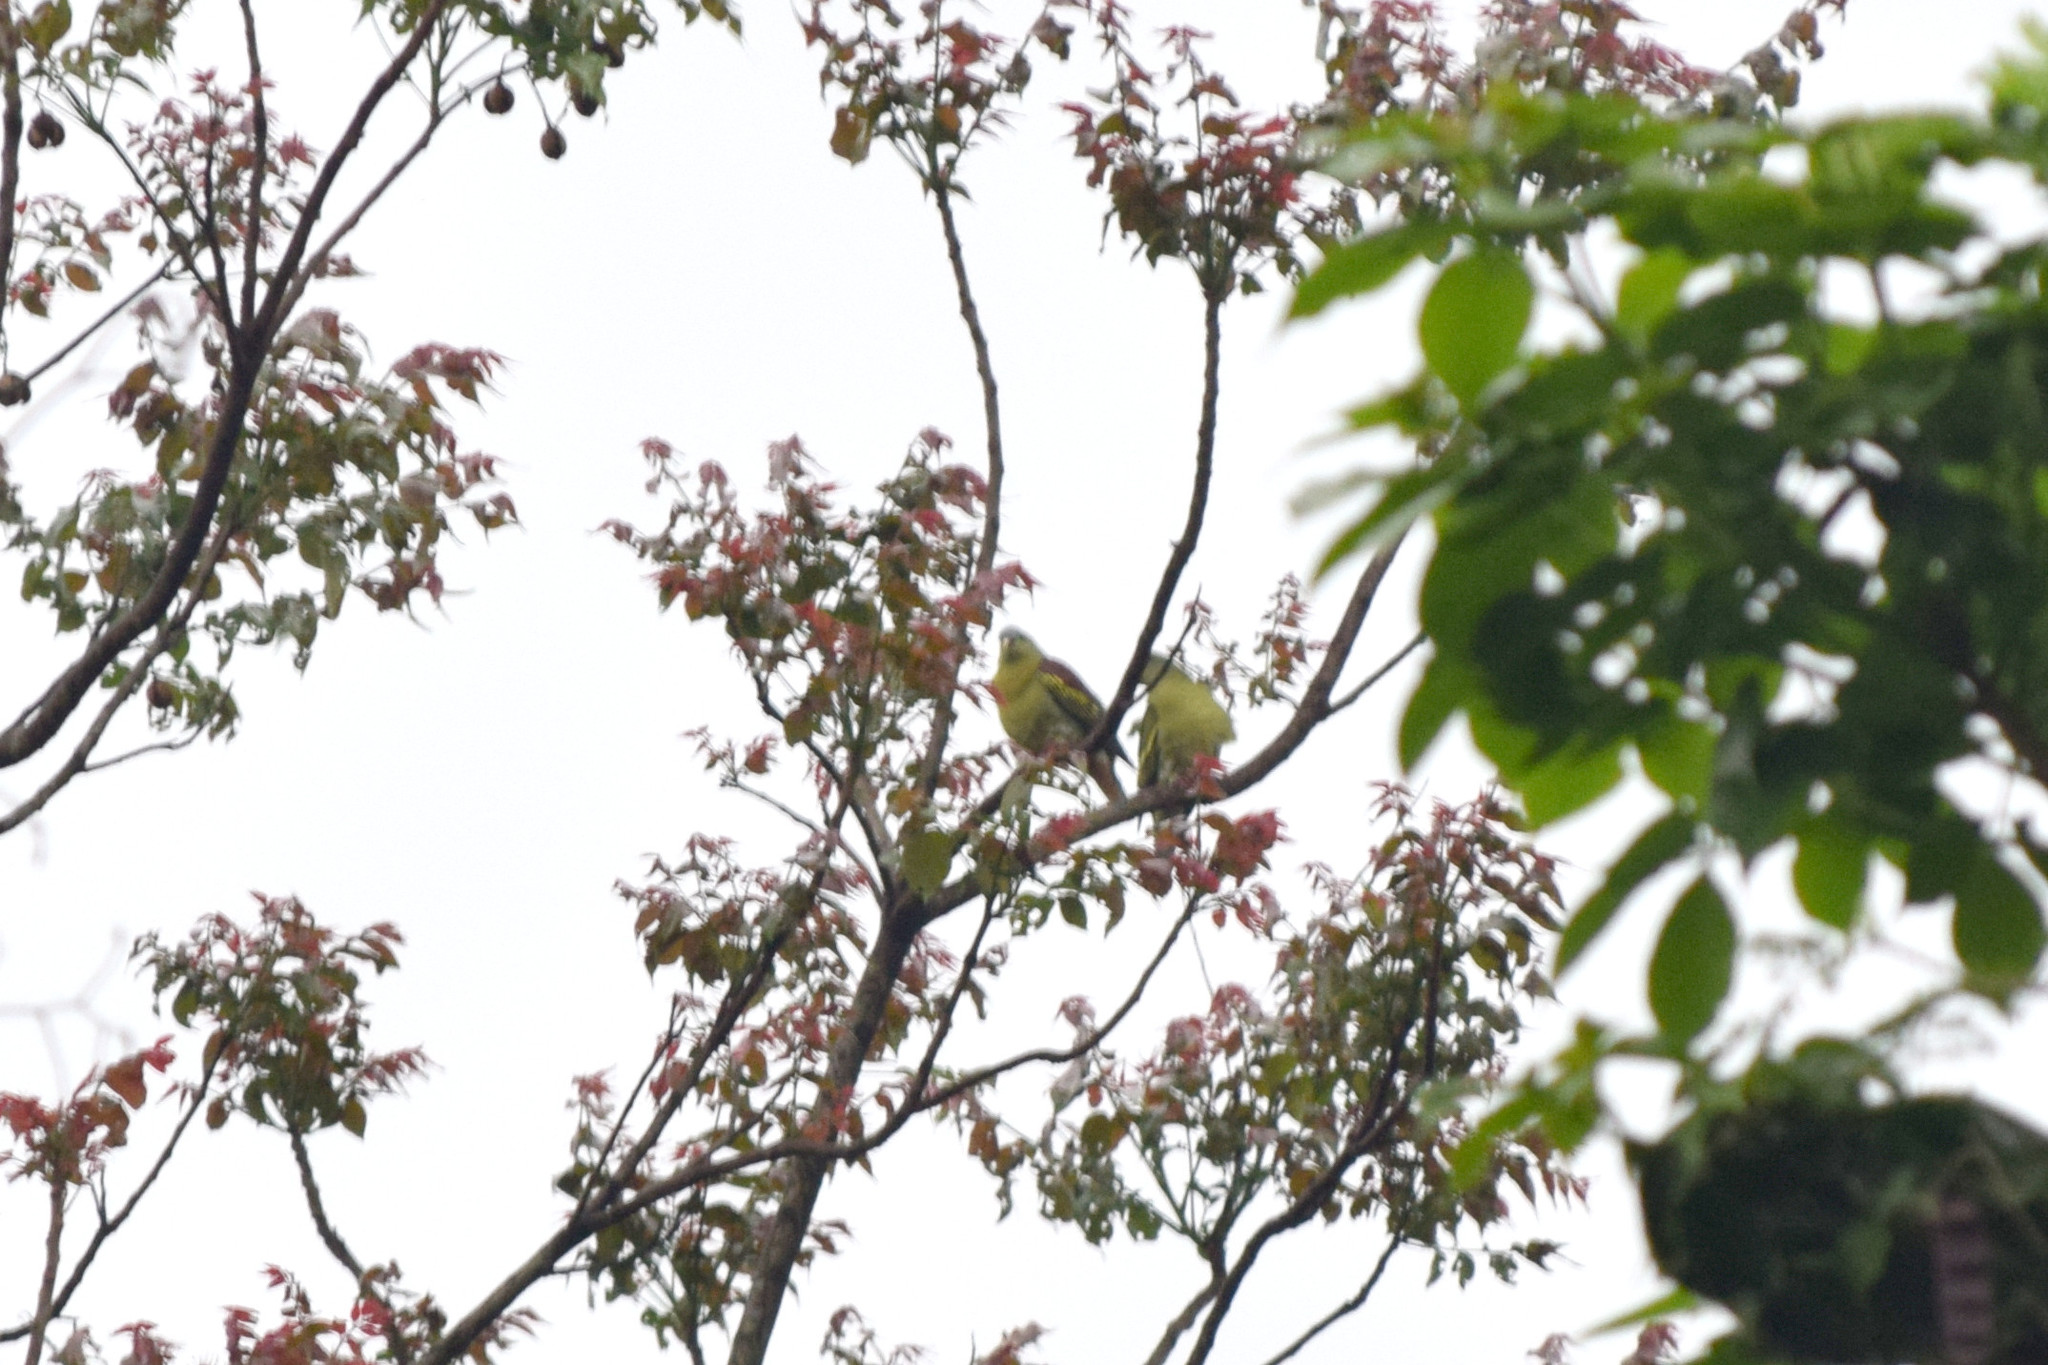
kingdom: Animalia
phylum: Chordata
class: Aves
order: Columbiformes
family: Columbidae
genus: Treron
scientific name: Treron curvirostra
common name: Thick-billed green pigeon
